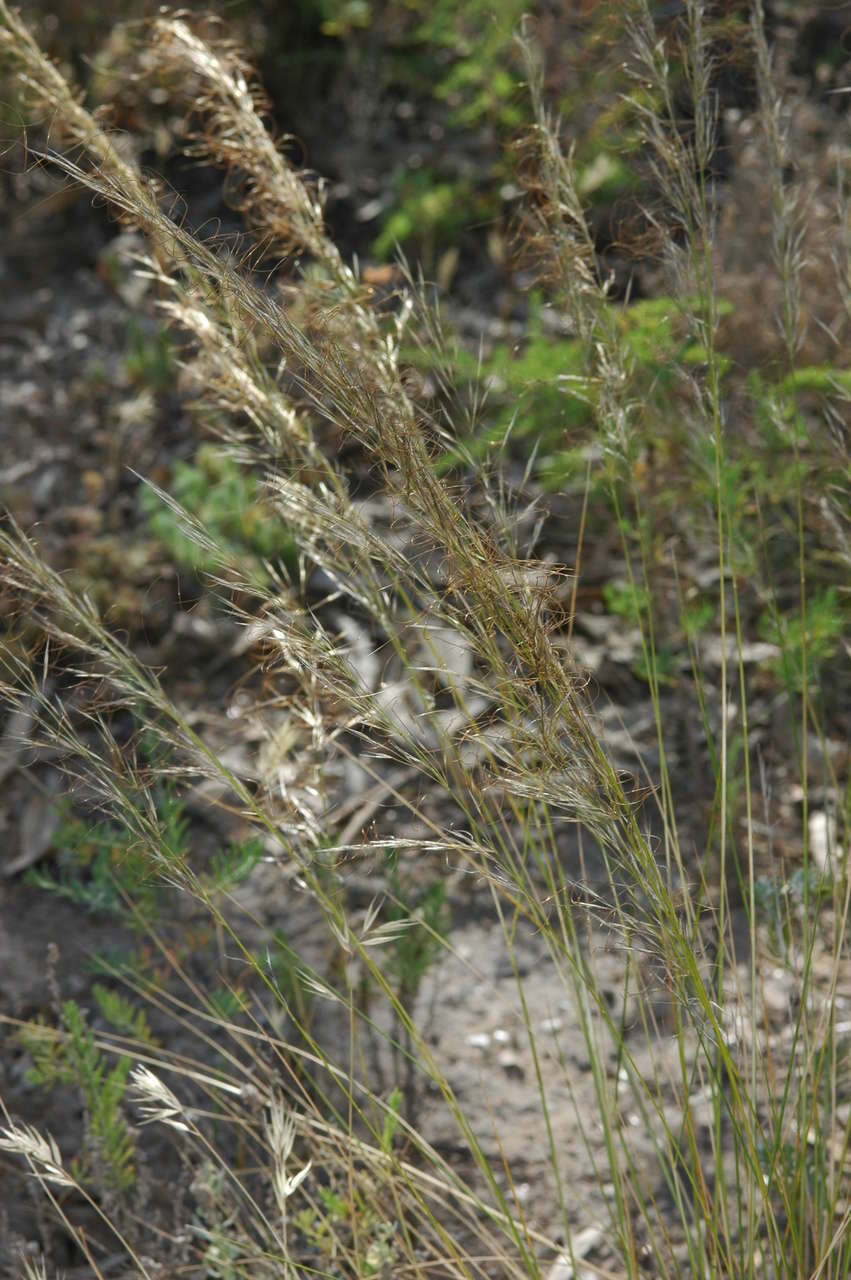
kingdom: Plantae
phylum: Tracheophyta
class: Liliopsida
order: Poales
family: Poaceae
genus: Austrostipa
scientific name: Austrostipa scabra
